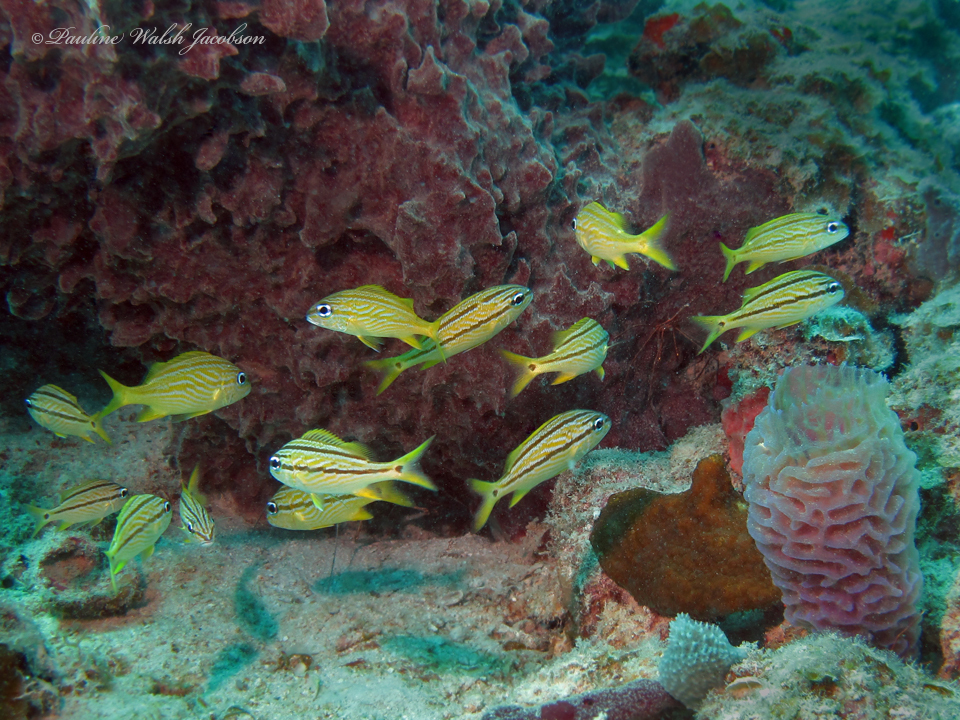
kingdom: Animalia
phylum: Chordata
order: Perciformes
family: Haemulidae
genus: Haemulon
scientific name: Haemulon flavolineatum
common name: French grunt
